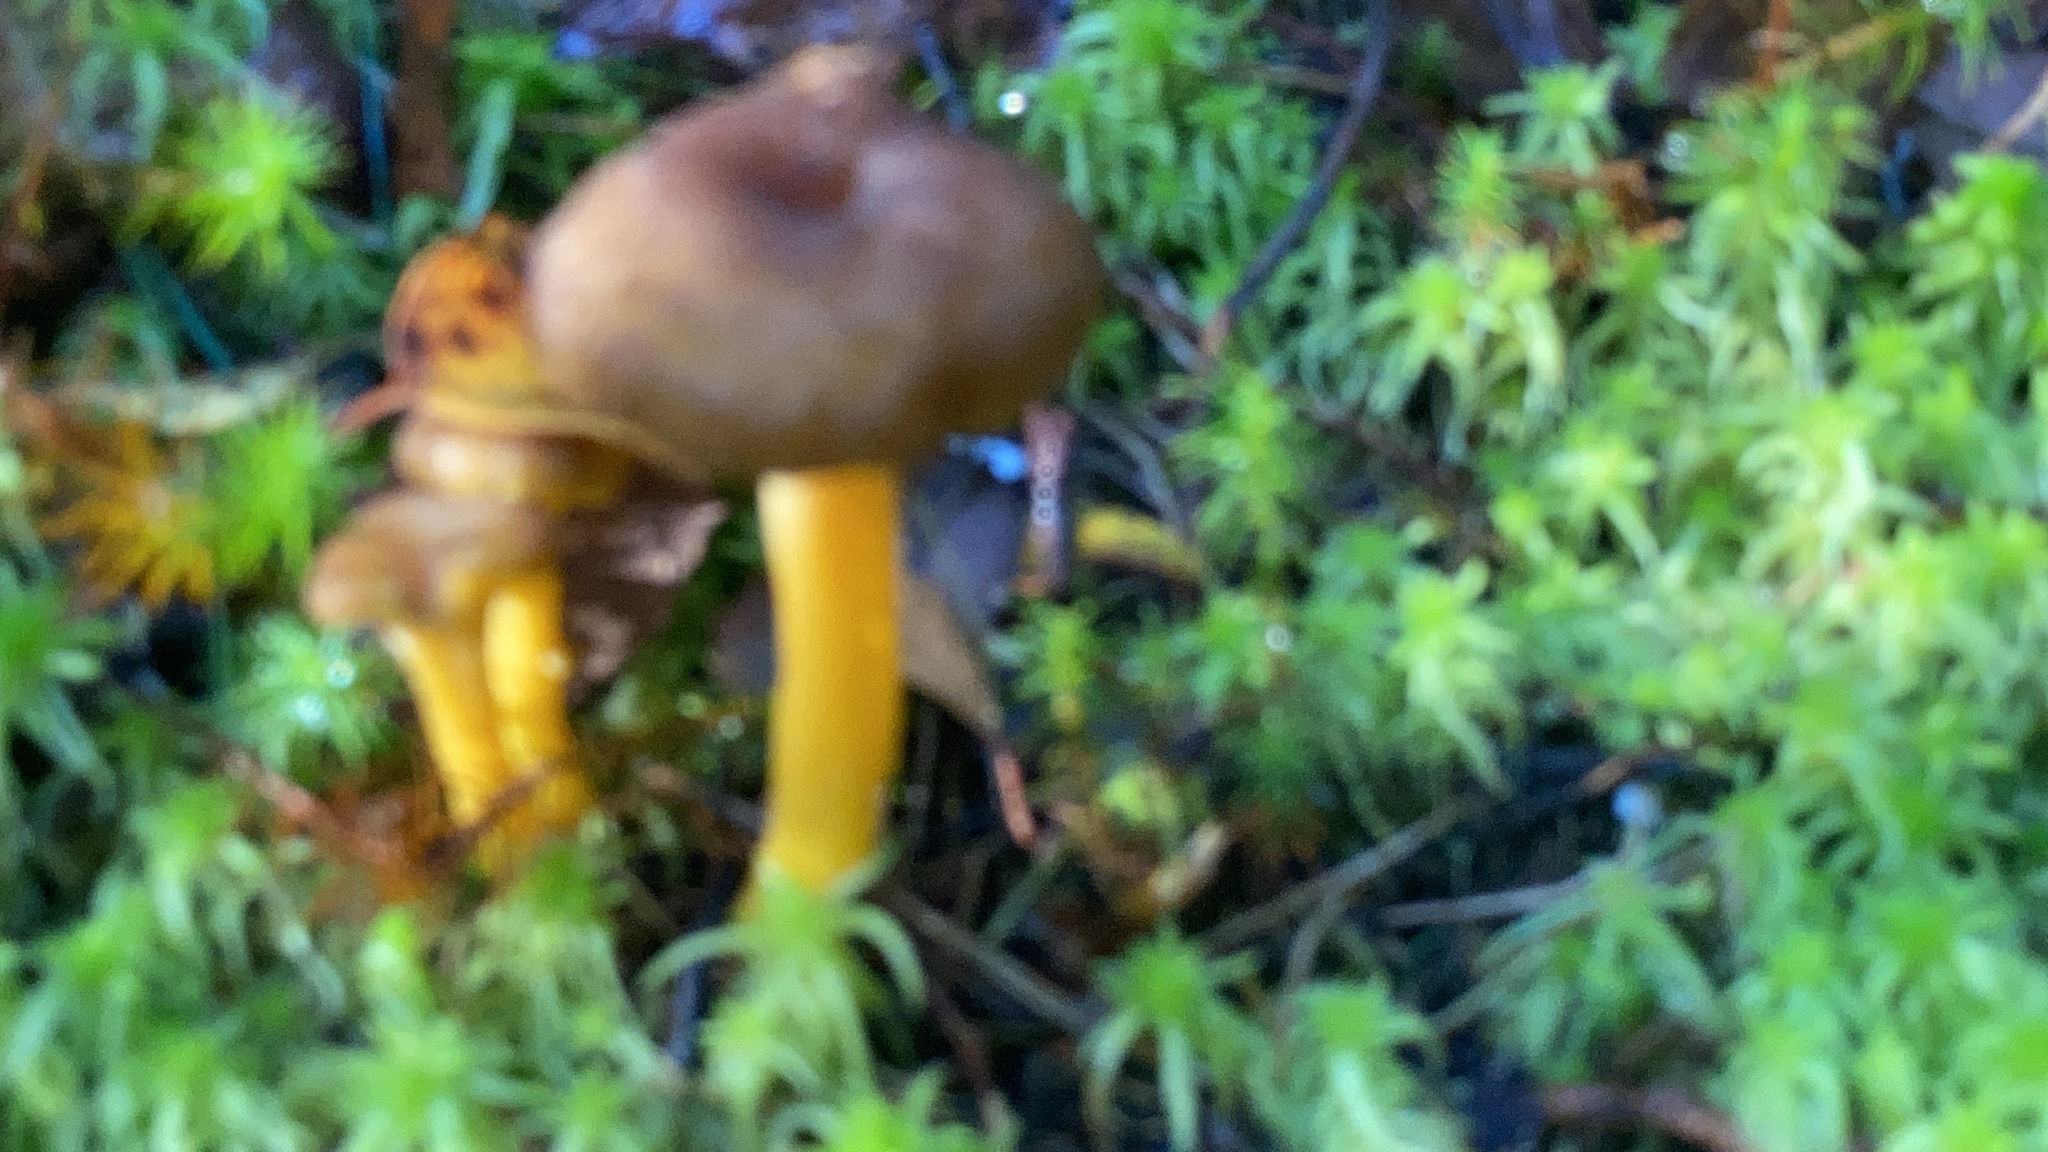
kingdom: Fungi
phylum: Basidiomycota
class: Agaricomycetes
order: Cantharellales
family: Hydnaceae
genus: Craterellus
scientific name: Craterellus tubaeformis
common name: Yellowfoot
